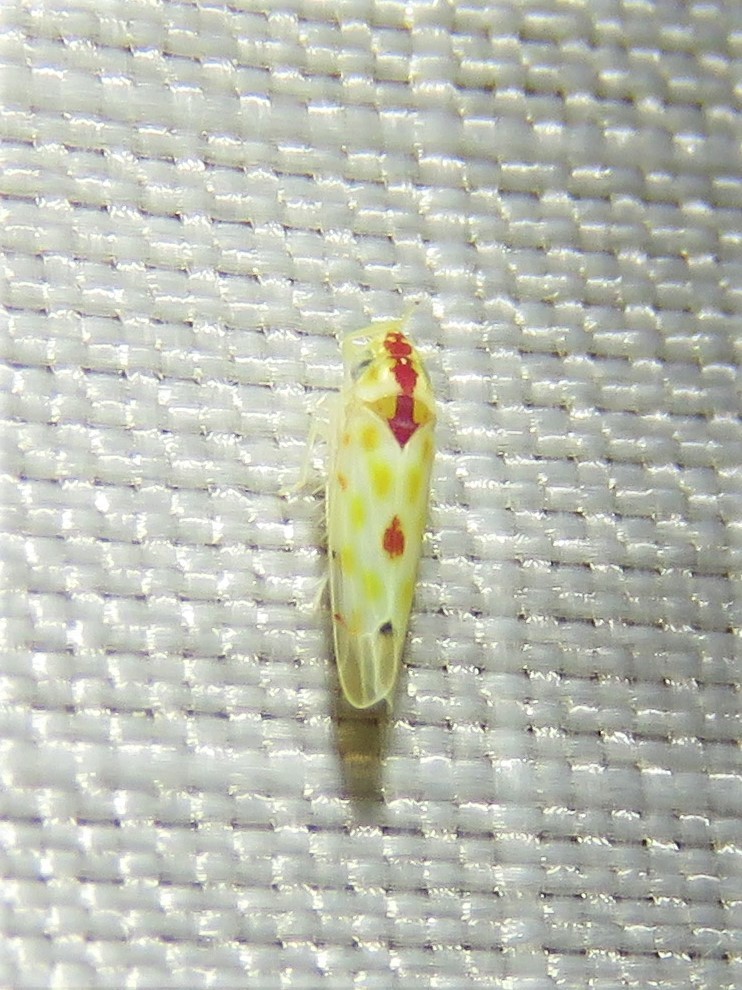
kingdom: Animalia
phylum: Arthropoda
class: Insecta
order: Hemiptera
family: Cicadellidae
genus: Eratoneura
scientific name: Eratoneura accola
